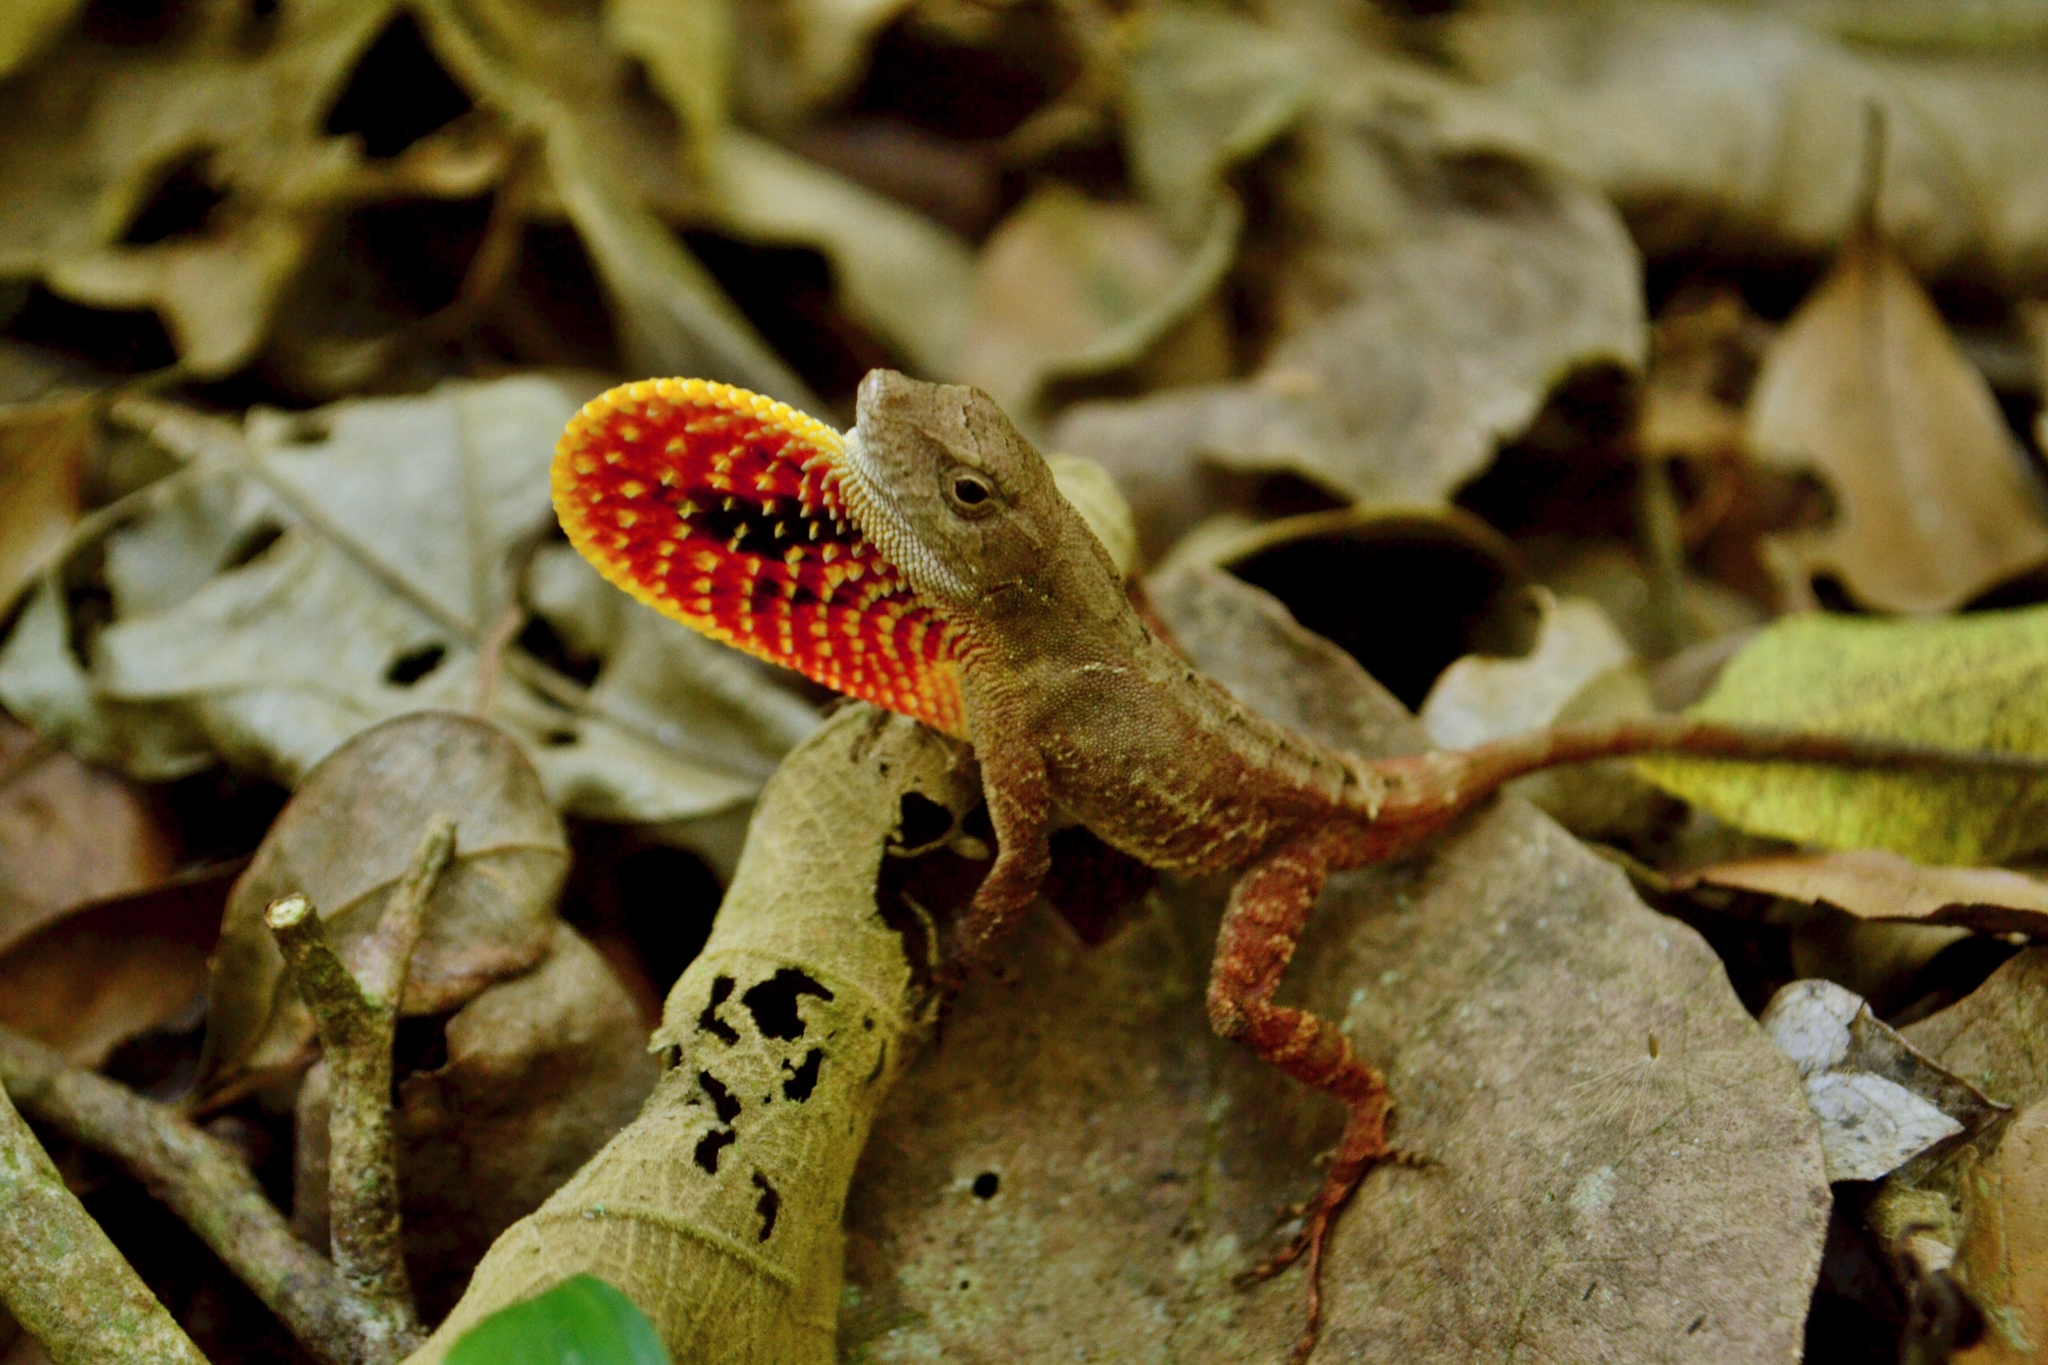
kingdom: Animalia
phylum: Chordata
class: Squamata
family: Dactyloidae
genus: Anolis
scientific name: Anolis spilorhipis
